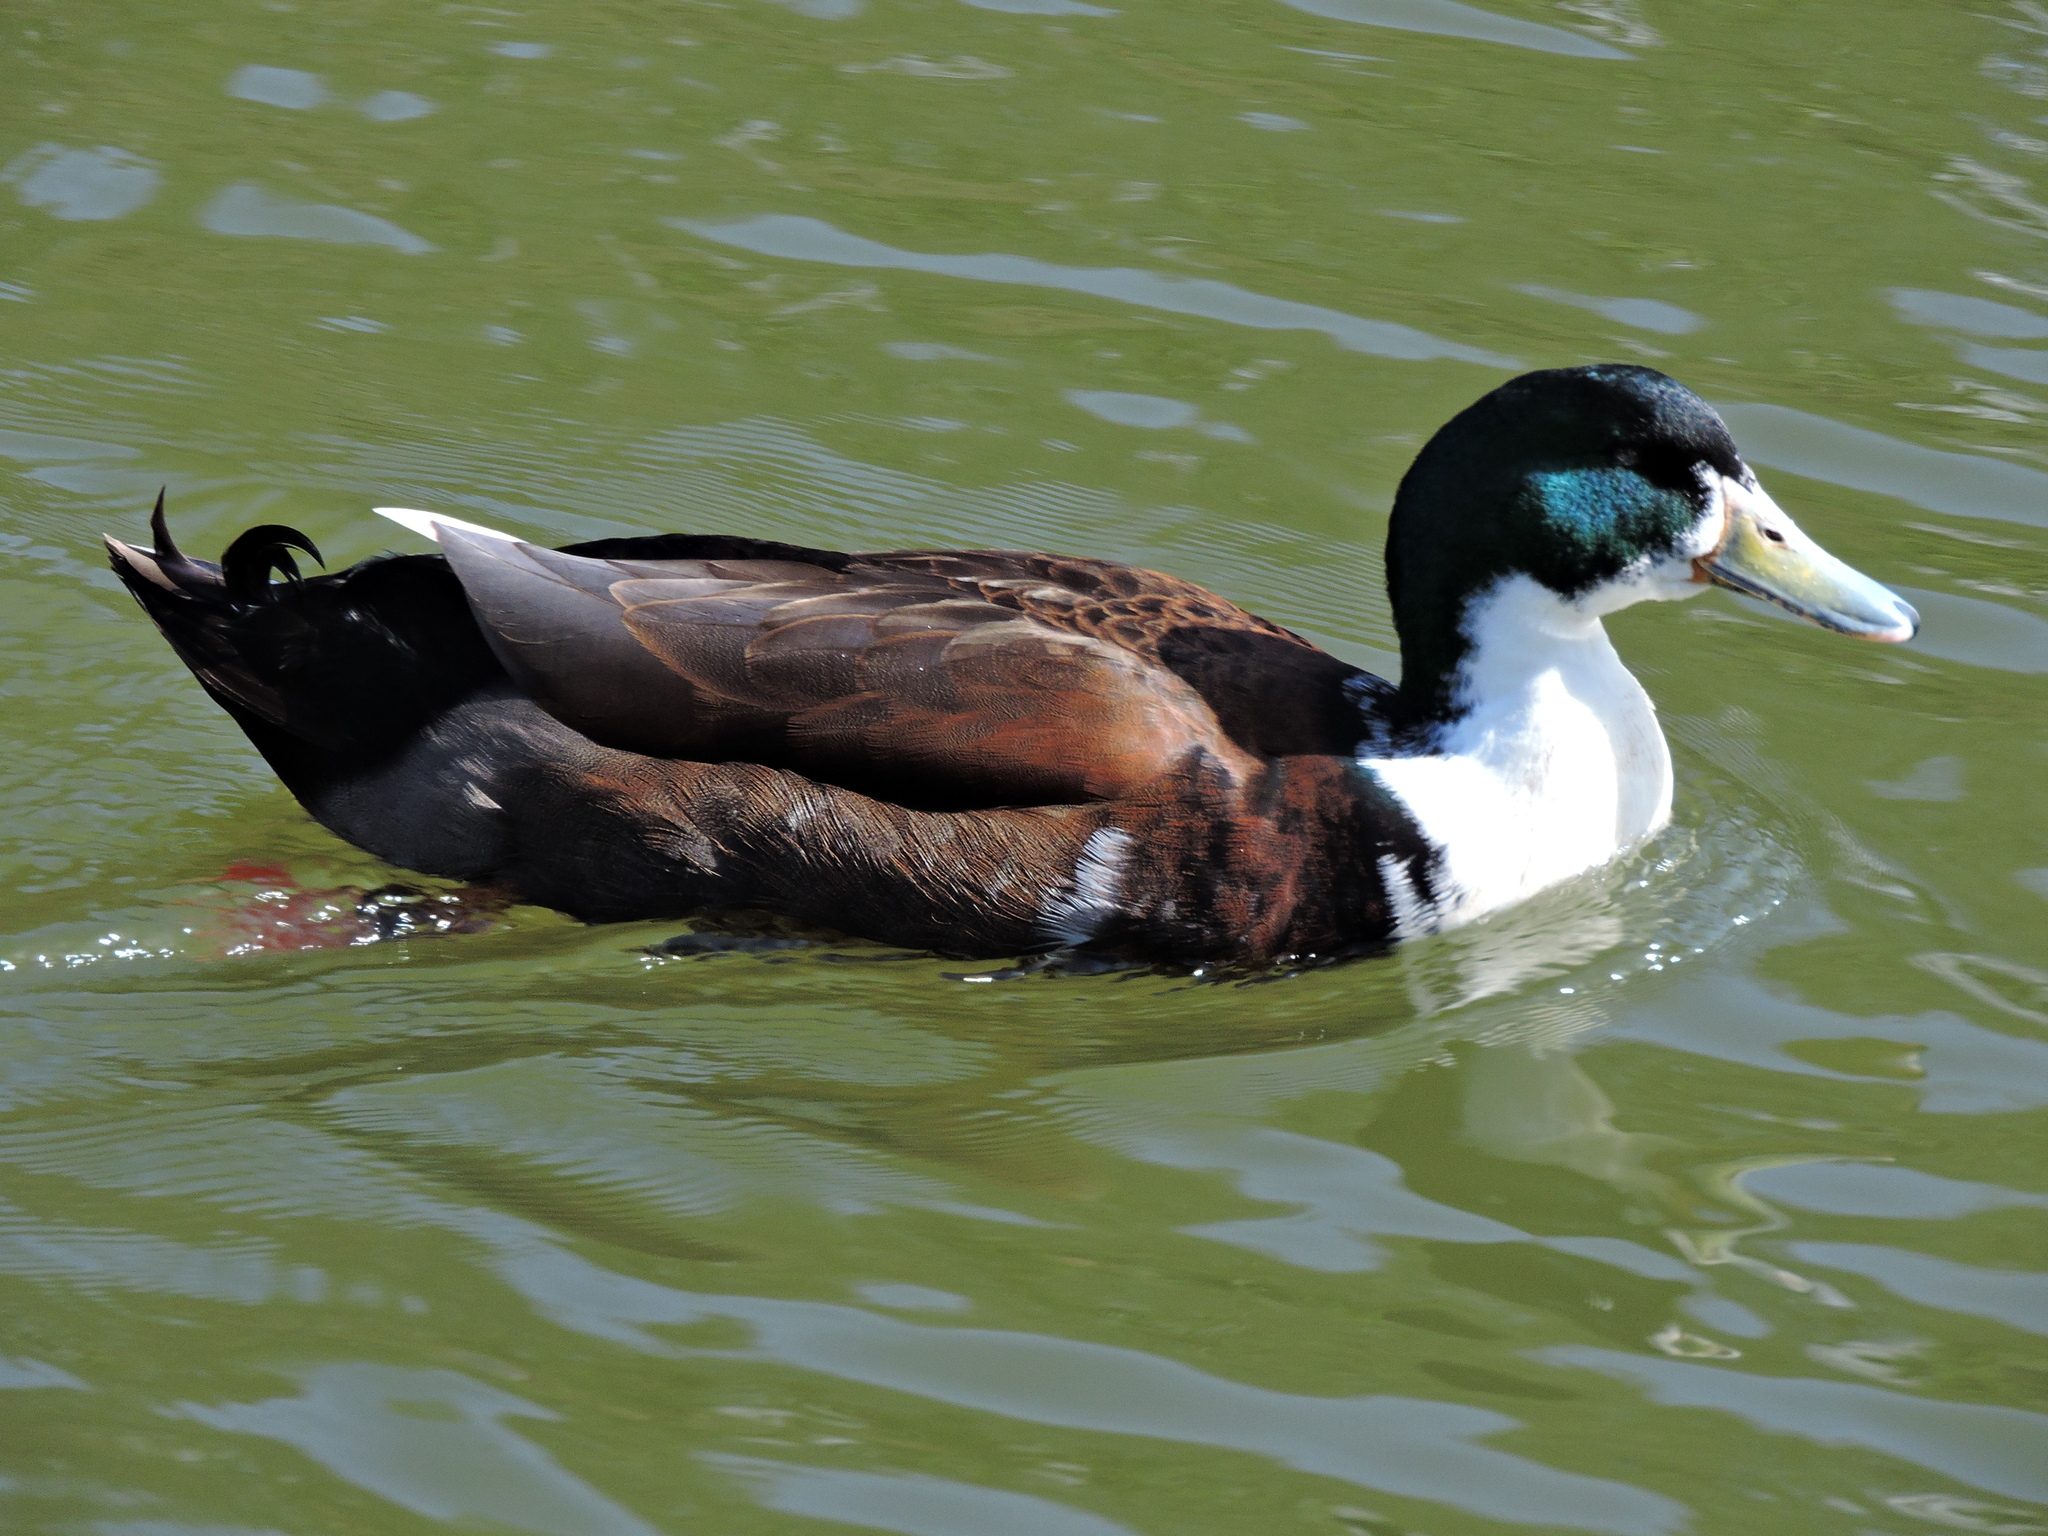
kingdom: Animalia
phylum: Chordata
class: Aves
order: Anseriformes
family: Anatidae
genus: Anas
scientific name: Anas platyrhynchos
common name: Mallard
